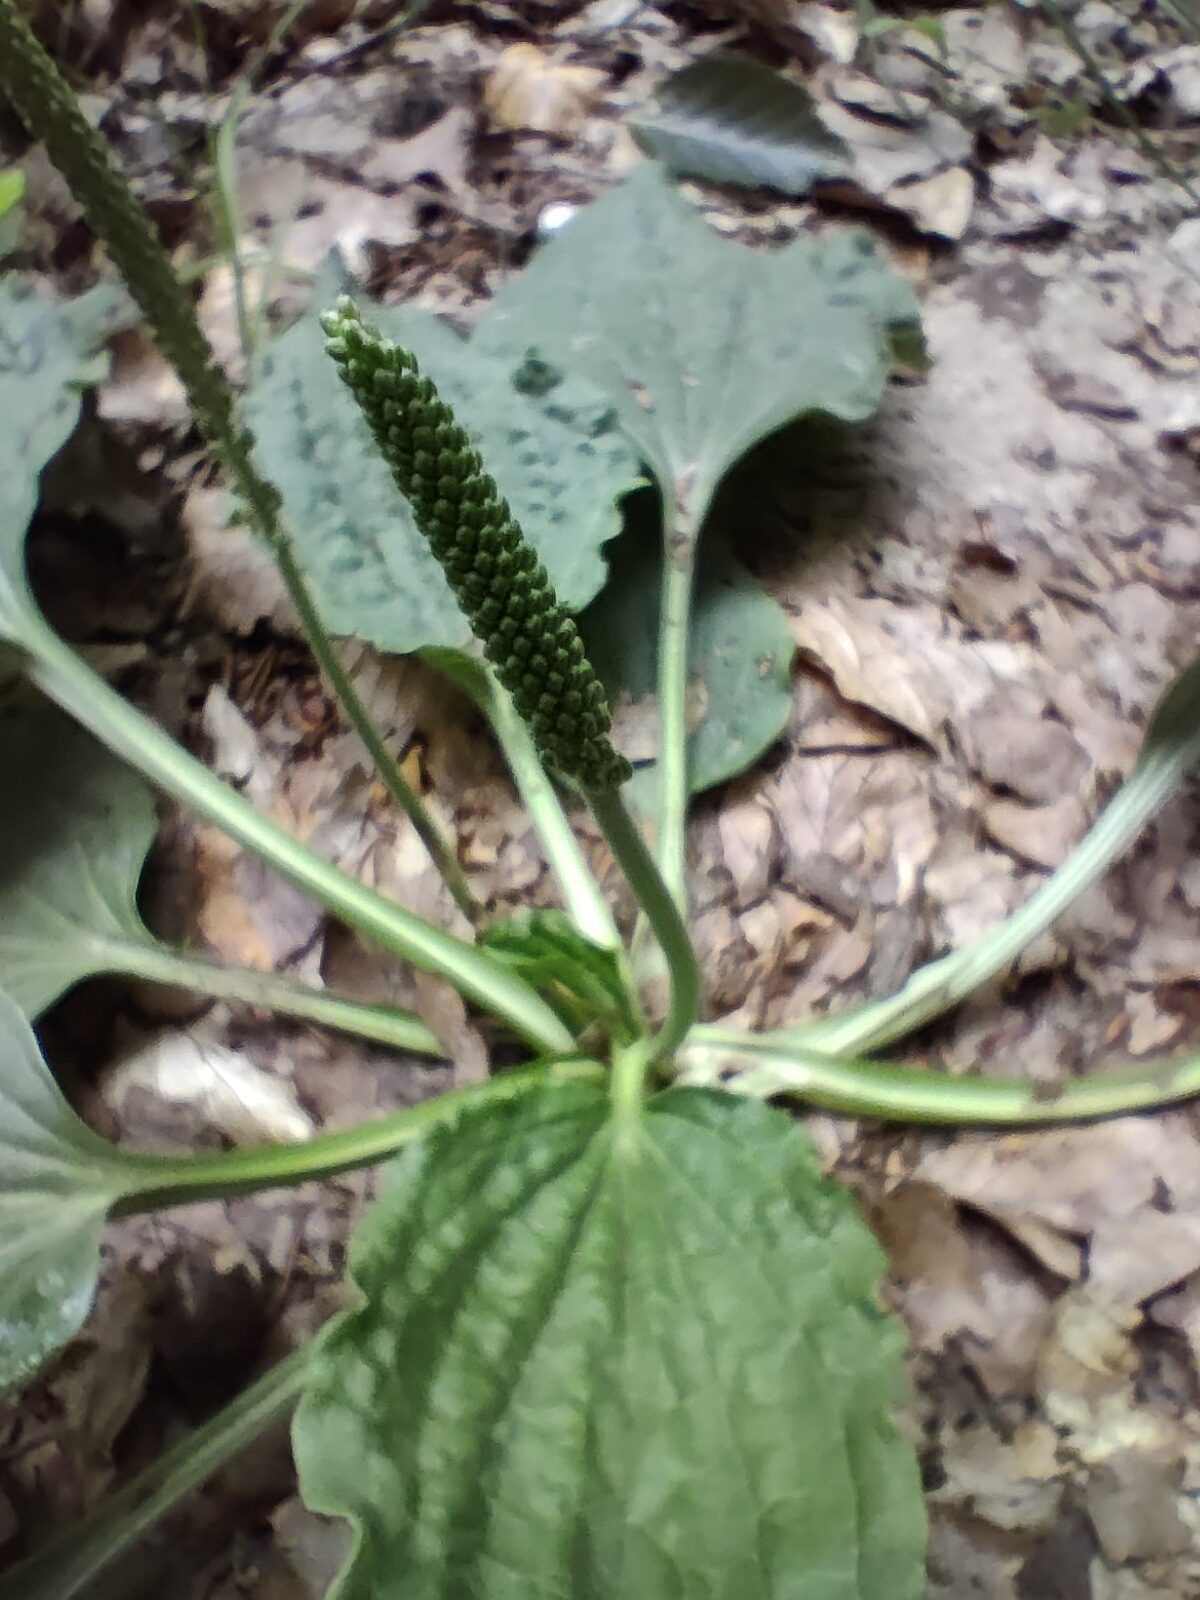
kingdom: Plantae
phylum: Tracheophyta
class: Magnoliopsida
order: Lamiales
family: Plantaginaceae
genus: Plantago
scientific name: Plantago major
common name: Common plantain
